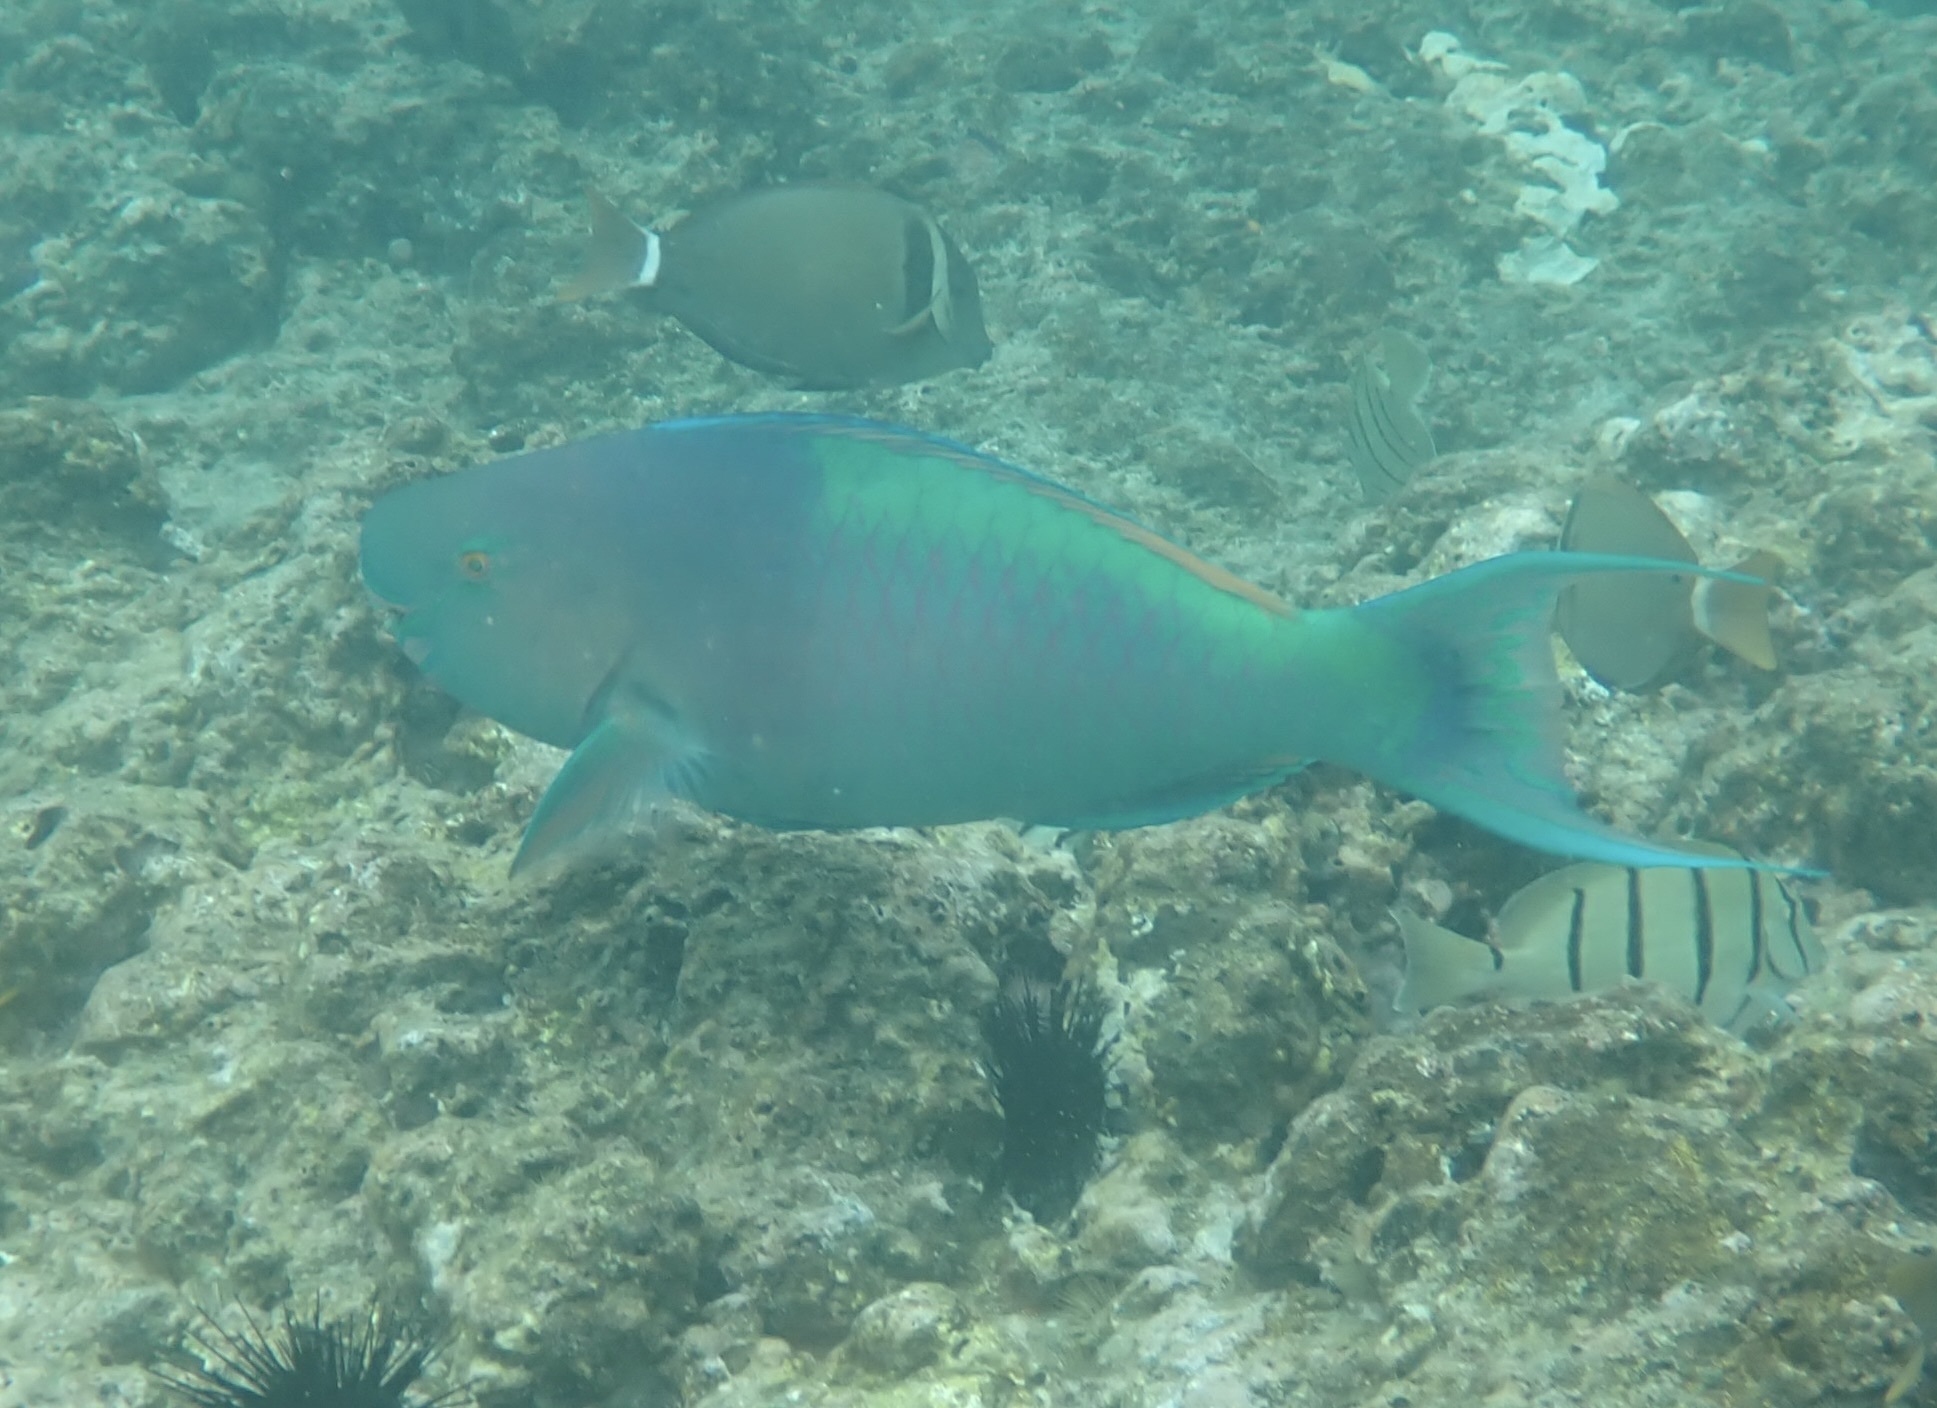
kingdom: Animalia
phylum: Chordata
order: Perciformes
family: Scaridae
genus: Scarus
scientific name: Scarus rubroviolaceus
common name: Ember parrotfish
